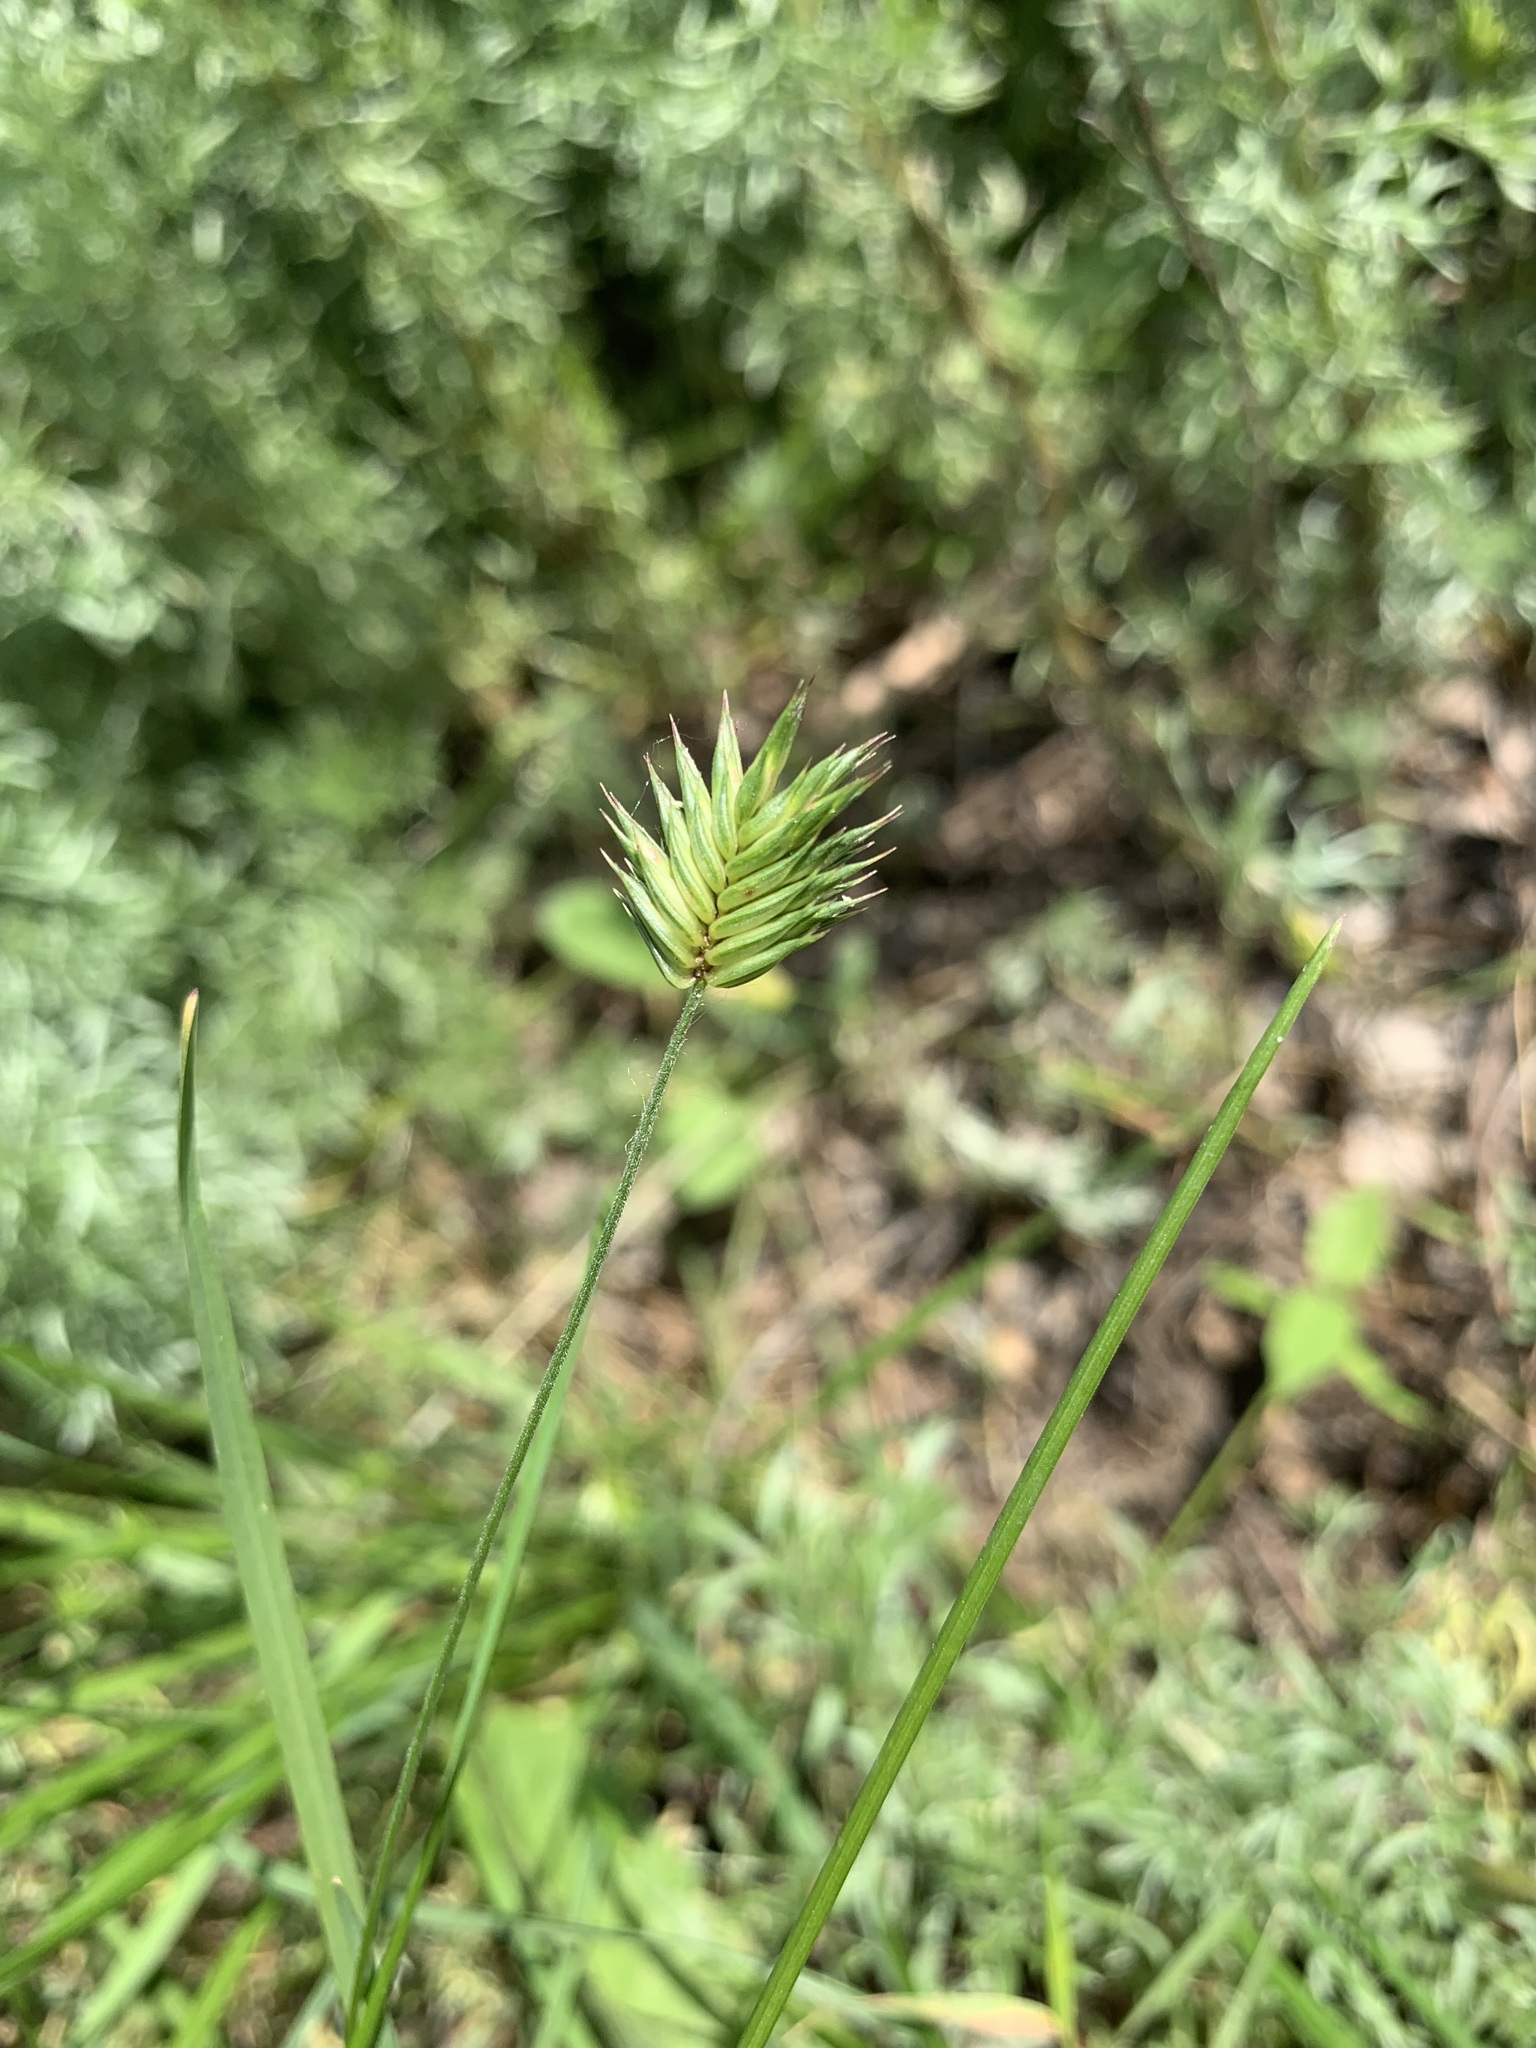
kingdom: Plantae
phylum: Tracheophyta
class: Liliopsida
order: Poales
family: Poaceae
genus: Eremopyrum
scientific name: Eremopyrum triticeum
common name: Annual wheatgrass
